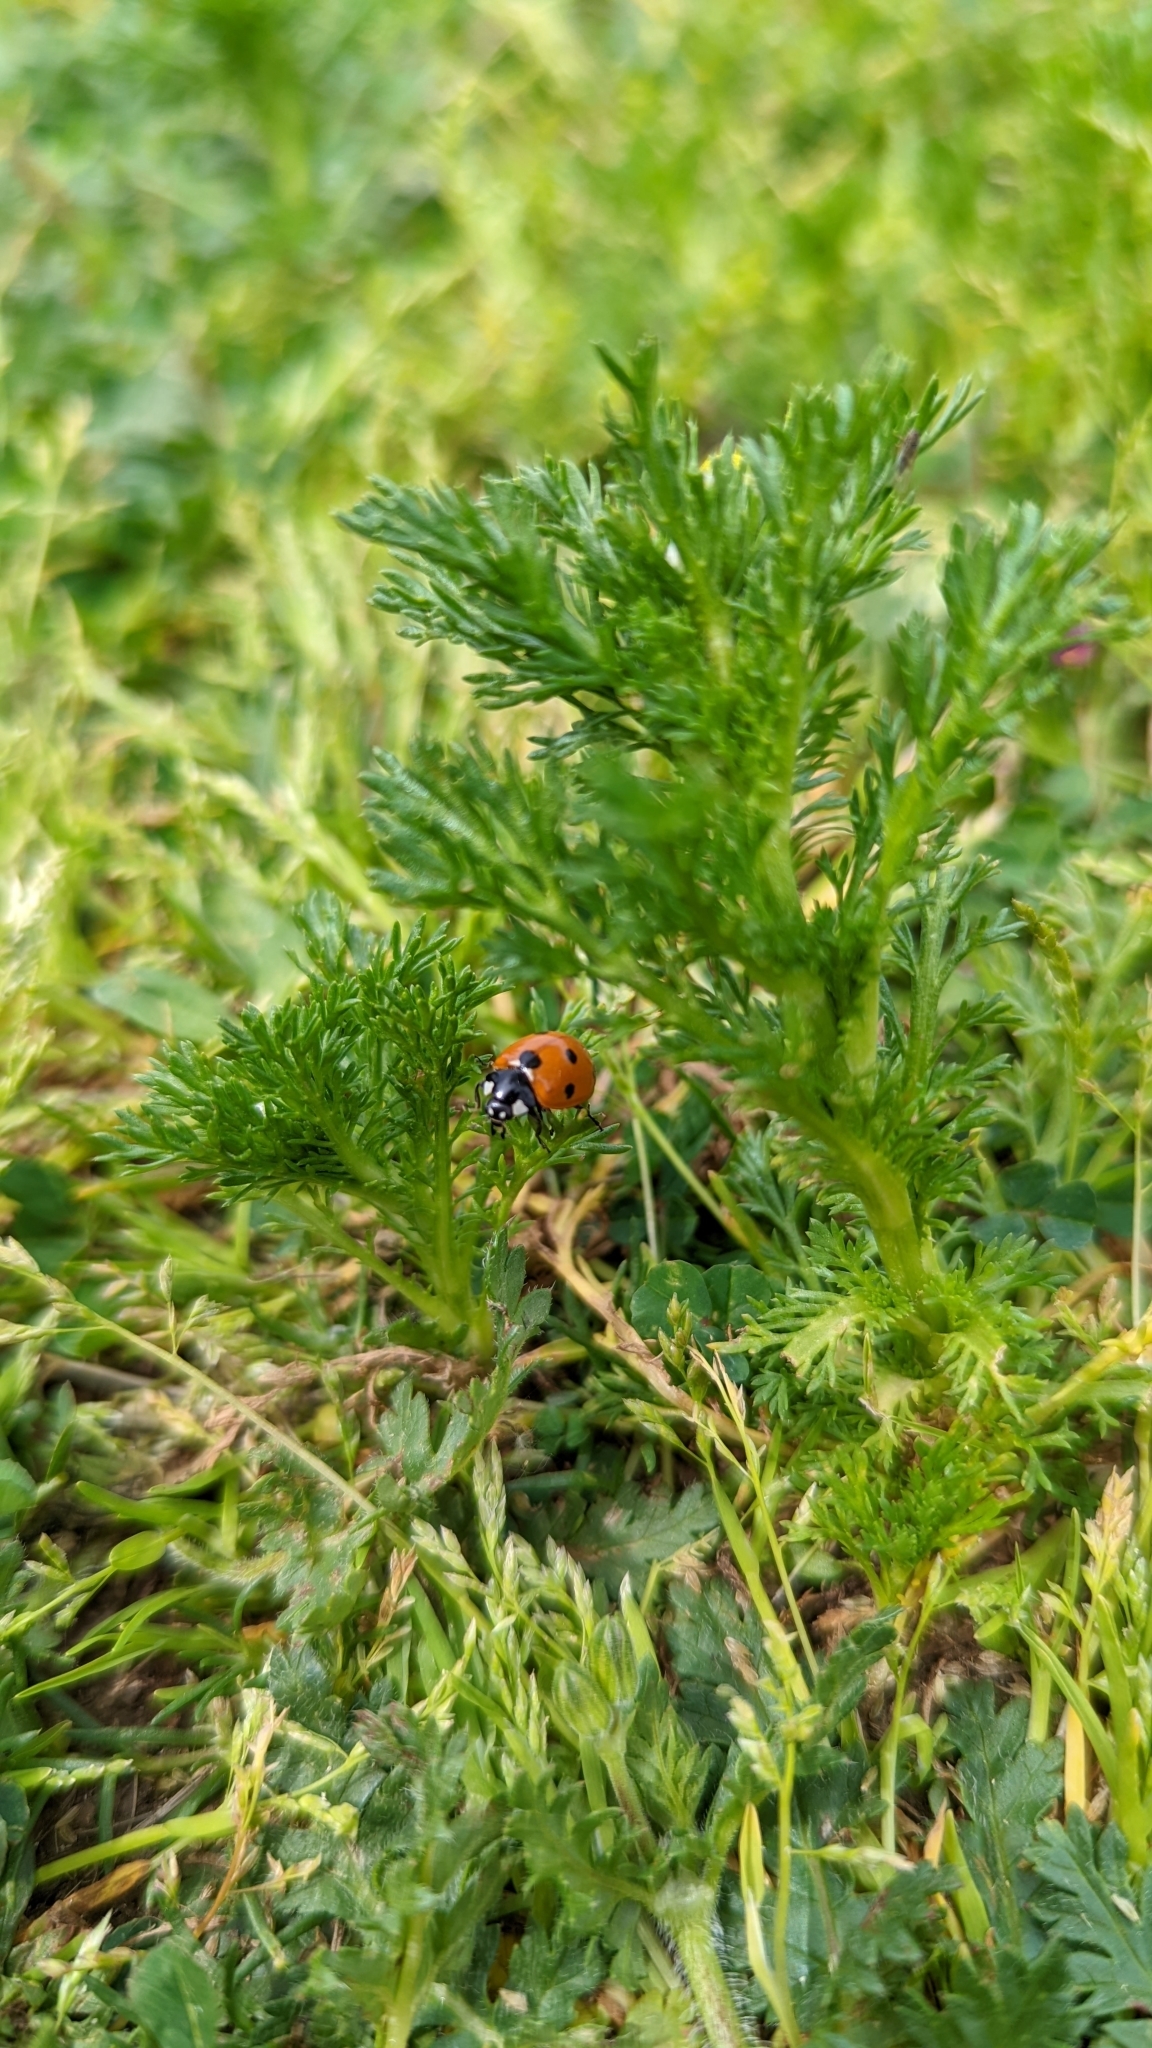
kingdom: Animalia
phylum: Arthropoda
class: Insecta
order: Coleoptera
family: Coccinellidae
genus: Coccinella
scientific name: Coccinella septempunctata
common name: Sevenspotted lady beetle
